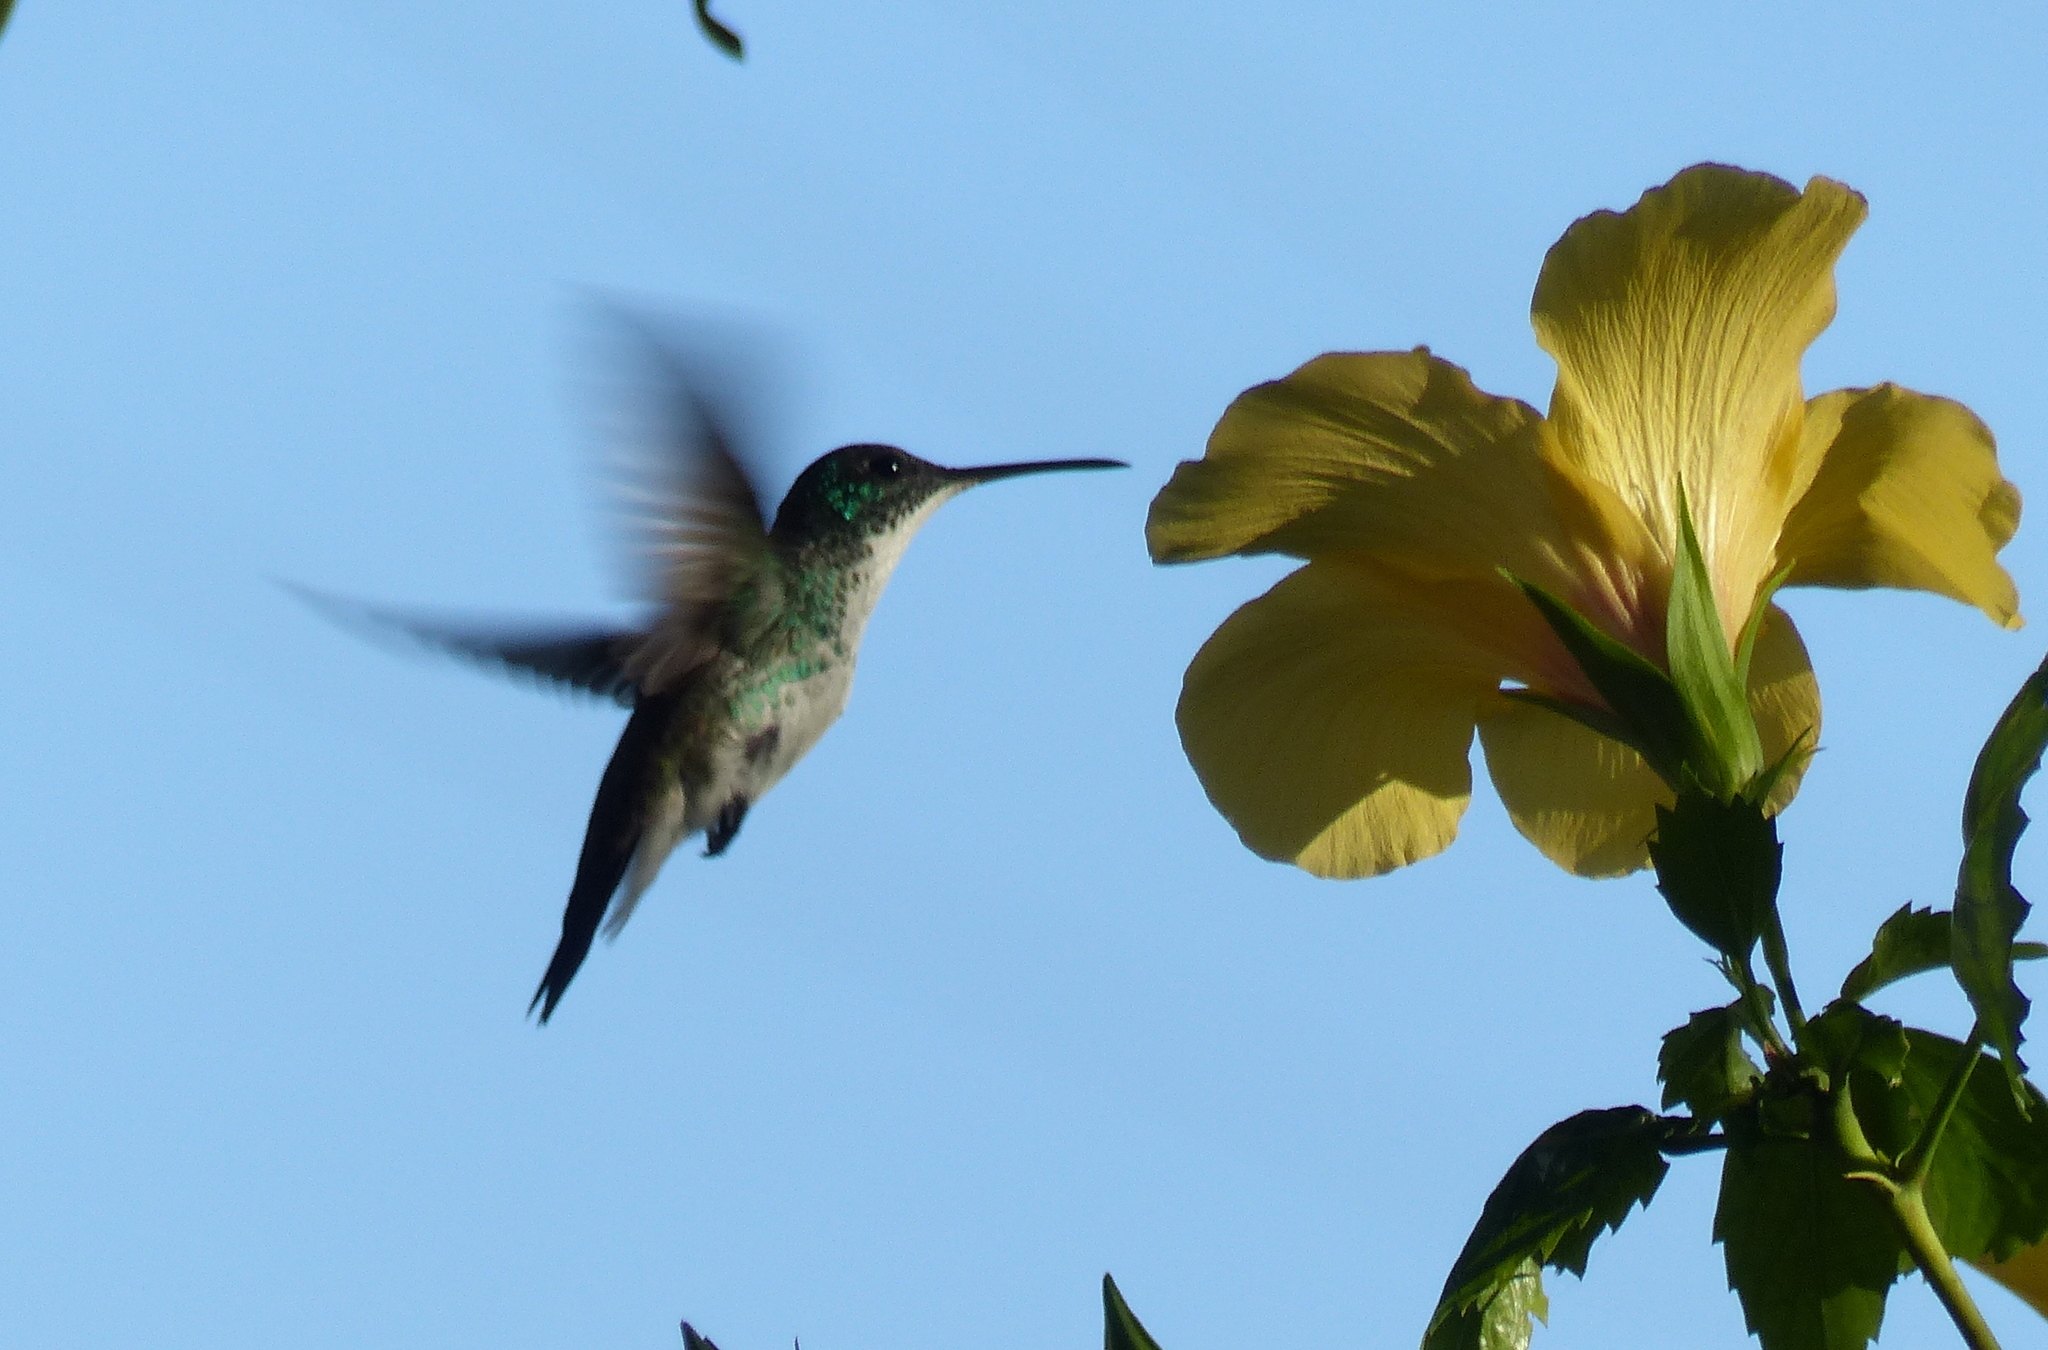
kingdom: Animalia
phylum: Chordata
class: Aves
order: Apodiformes
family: Trochilidae
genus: Chrysuronia
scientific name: Chrysuronia leucogaster
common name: Plain-bellied emerald
